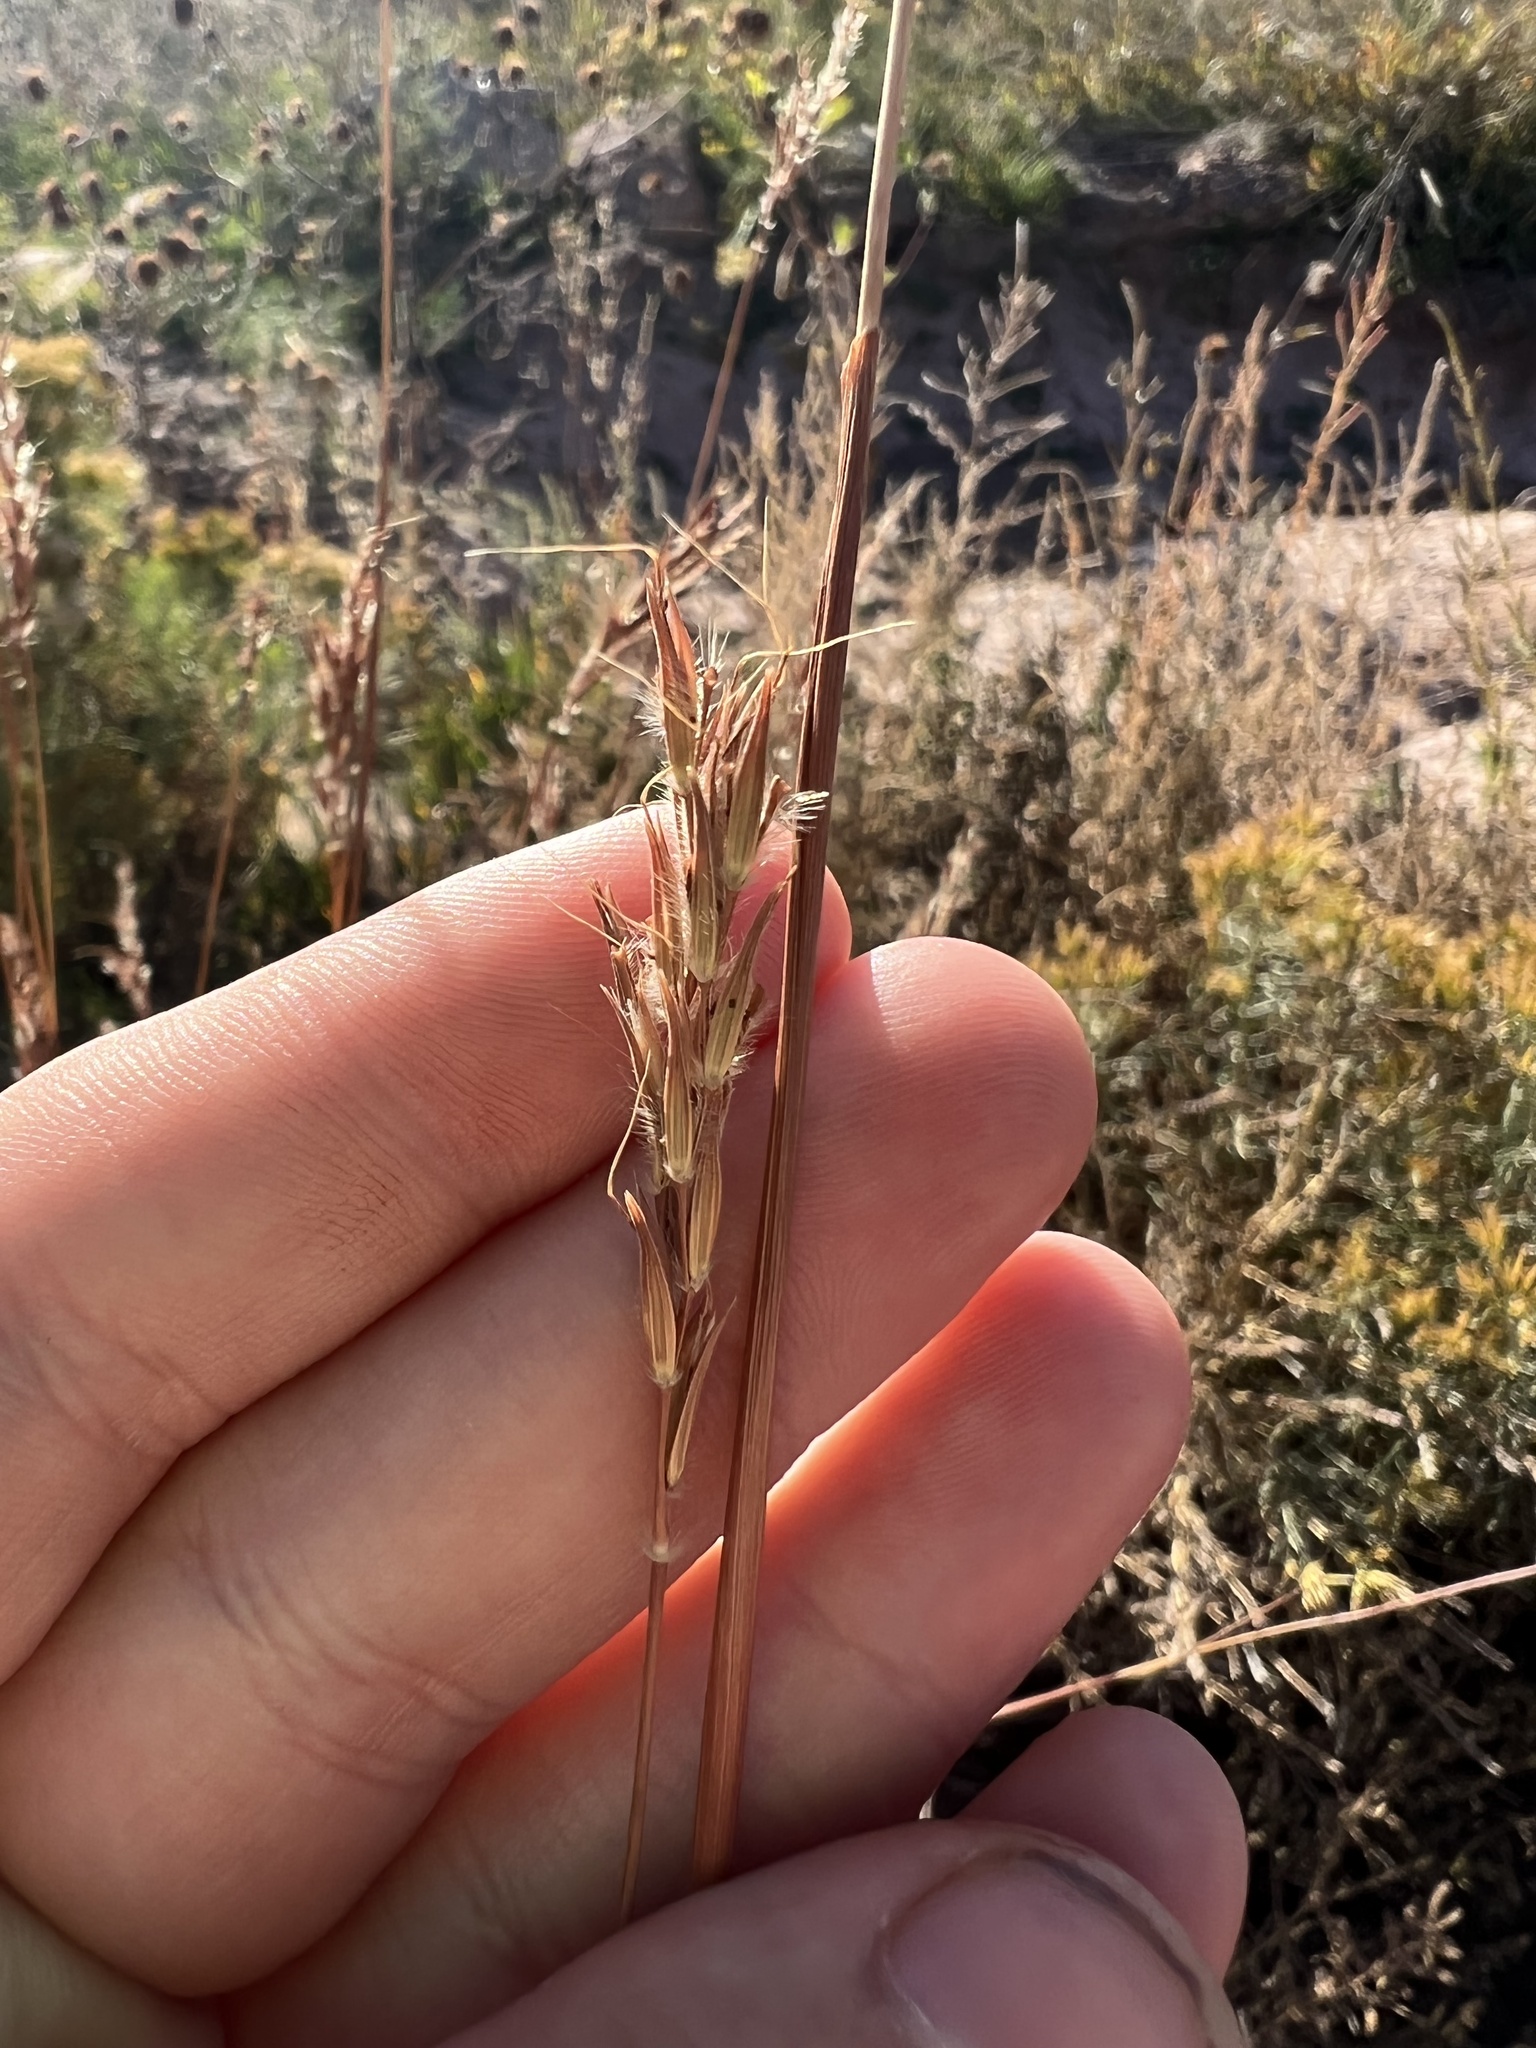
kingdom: Plantae
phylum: Tracheophyta
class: Liliopsida
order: Poales
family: Poaceae
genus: Sorghastrum
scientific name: Sorghastrum nutans
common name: Indian grass
